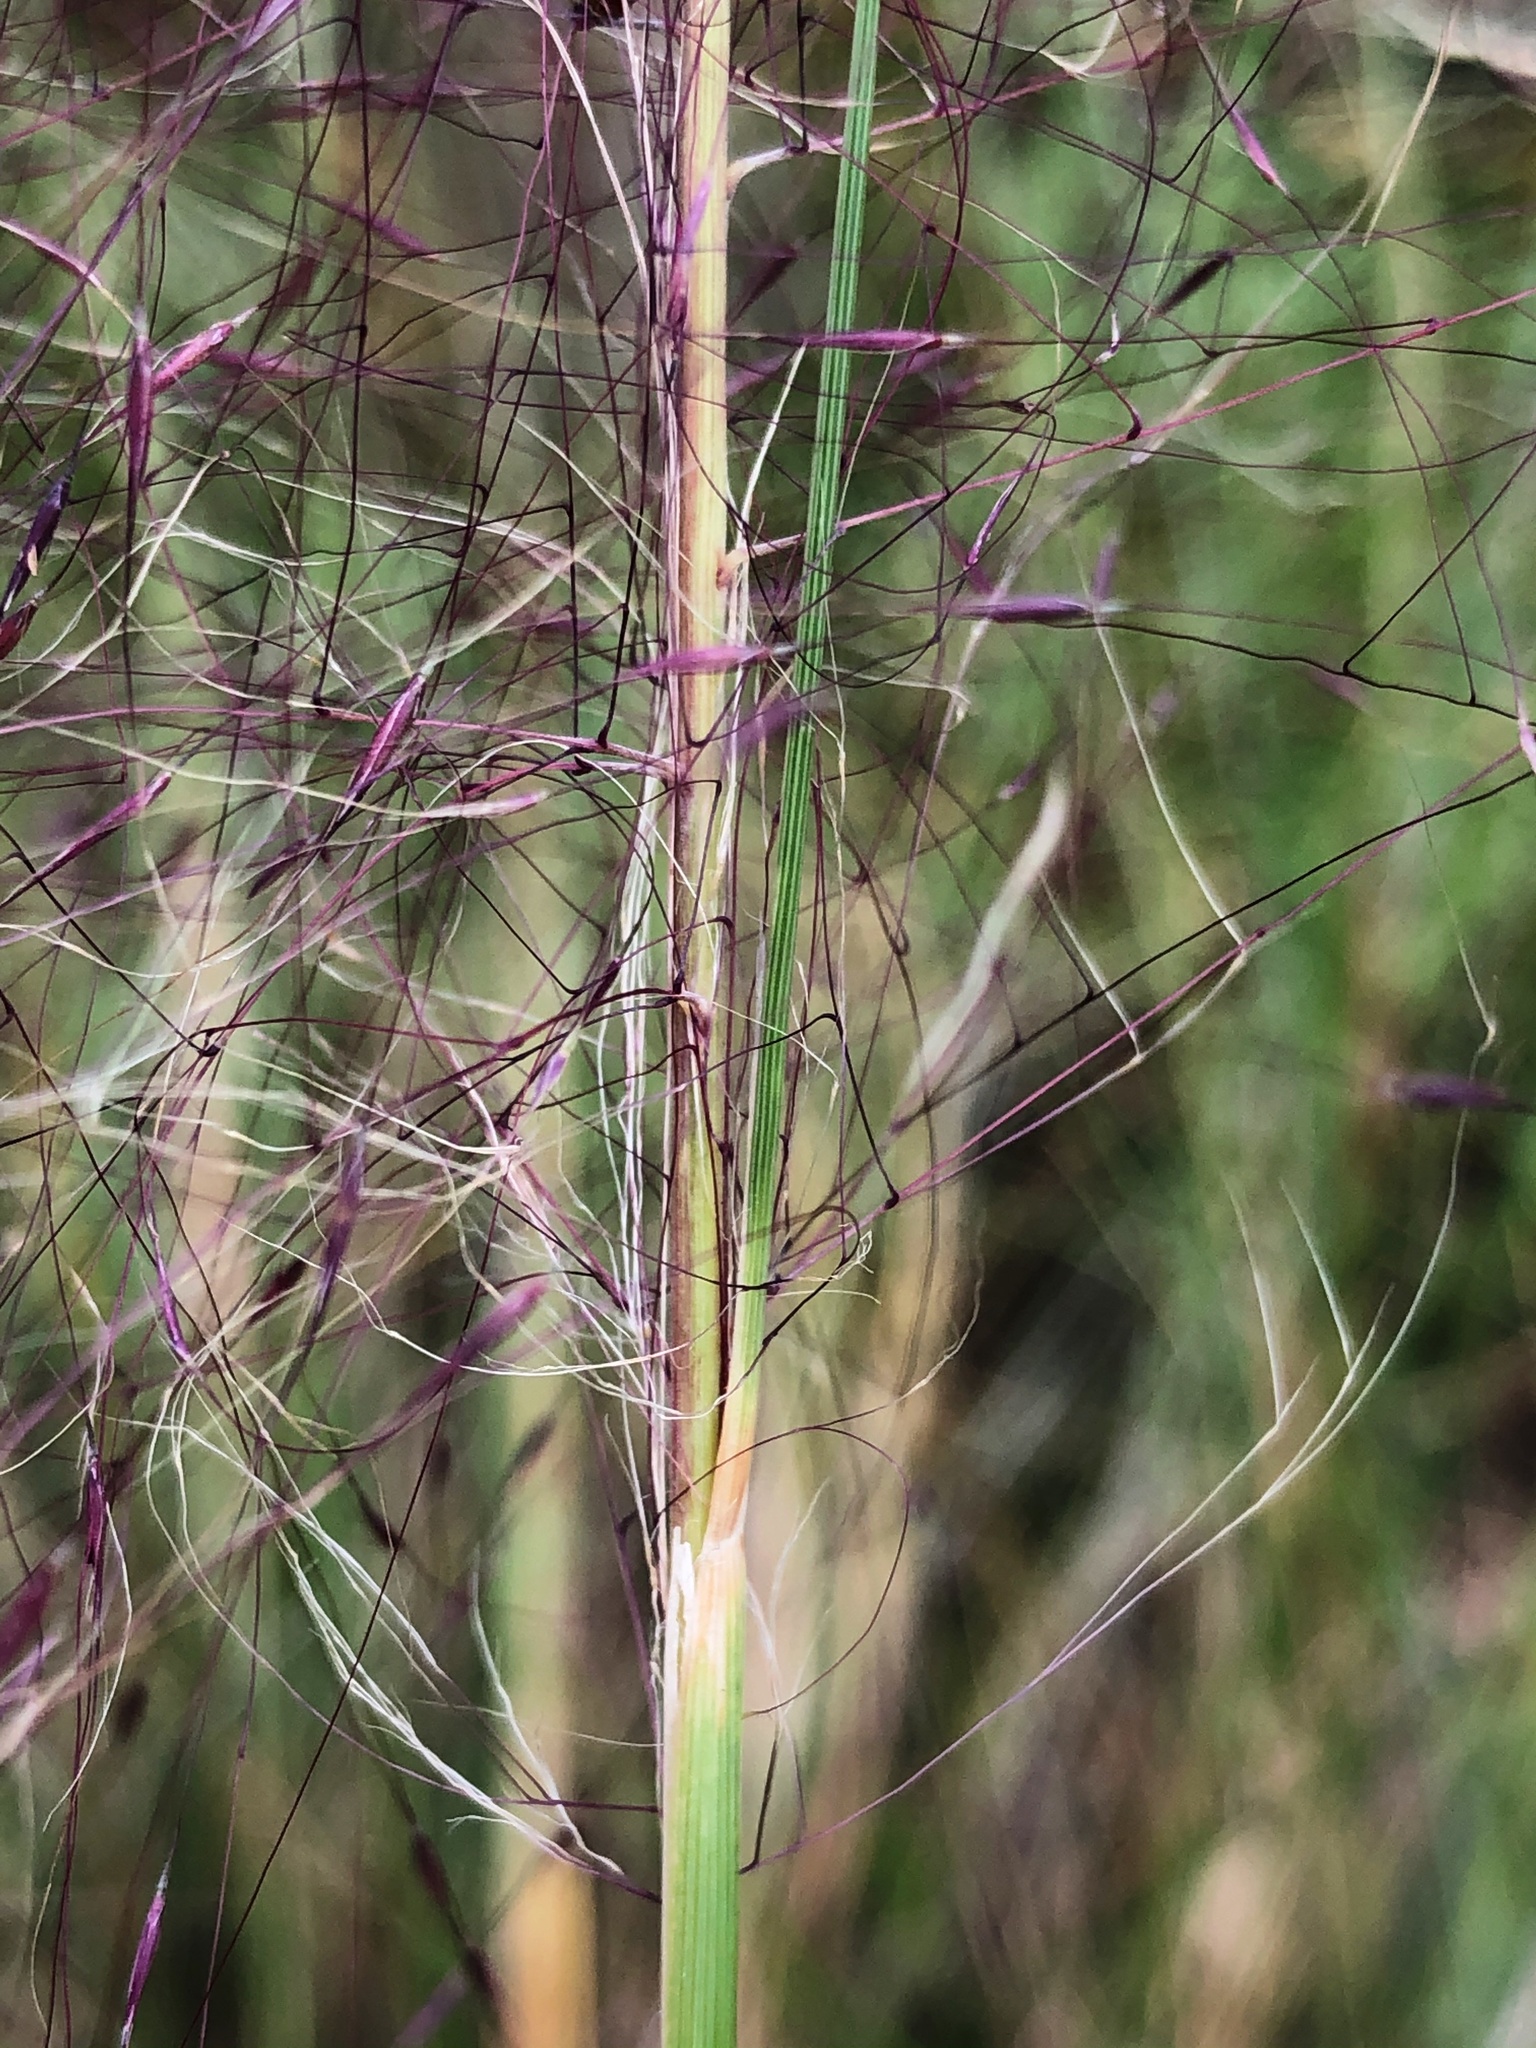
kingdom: Plantae
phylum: Tracheophyta
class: Liliopsida
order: Poales
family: Poaceae
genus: Muhlenbergia
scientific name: Muhlenbergia capillaris
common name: Purple grass
